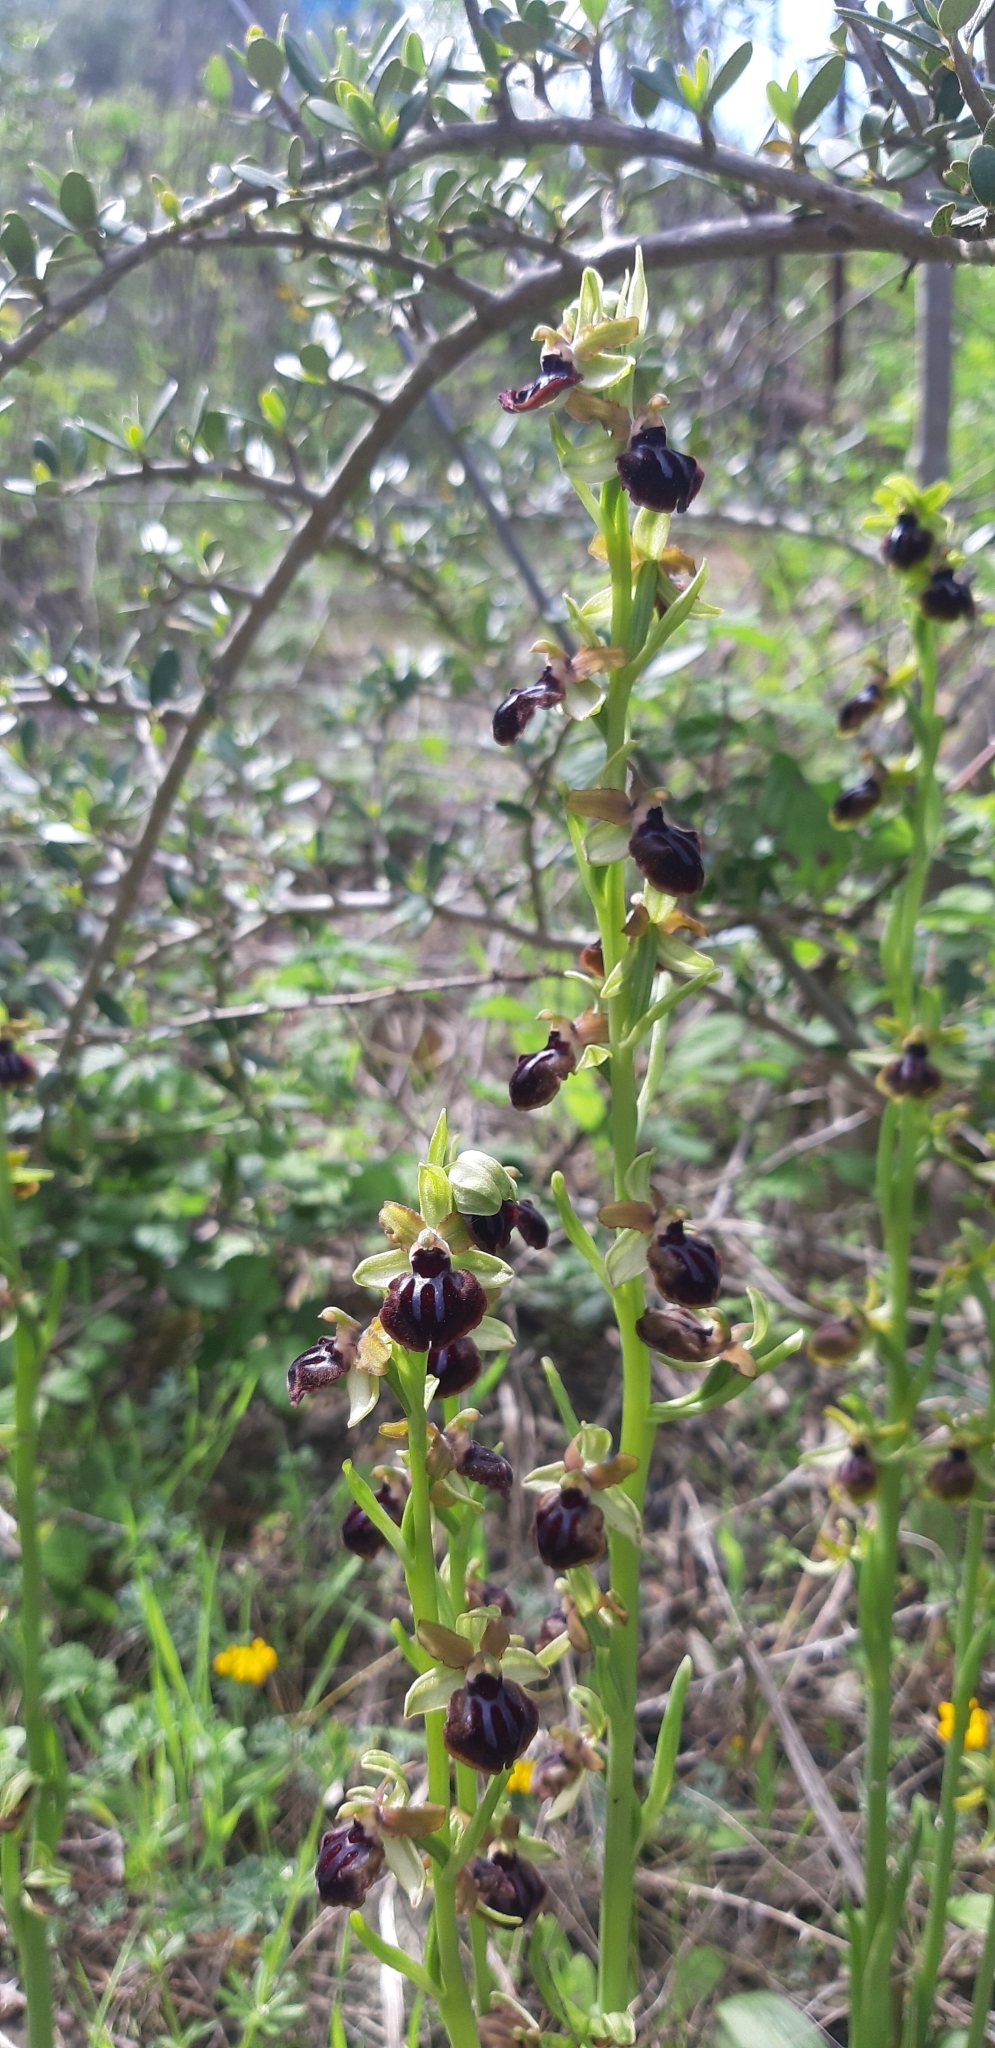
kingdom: Plantae
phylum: Tracheophyta
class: Liliopsida
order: Asparagales
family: Orchidaceae
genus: Ophrys
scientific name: Ophrys sphegodes
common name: Early spider-orchid
